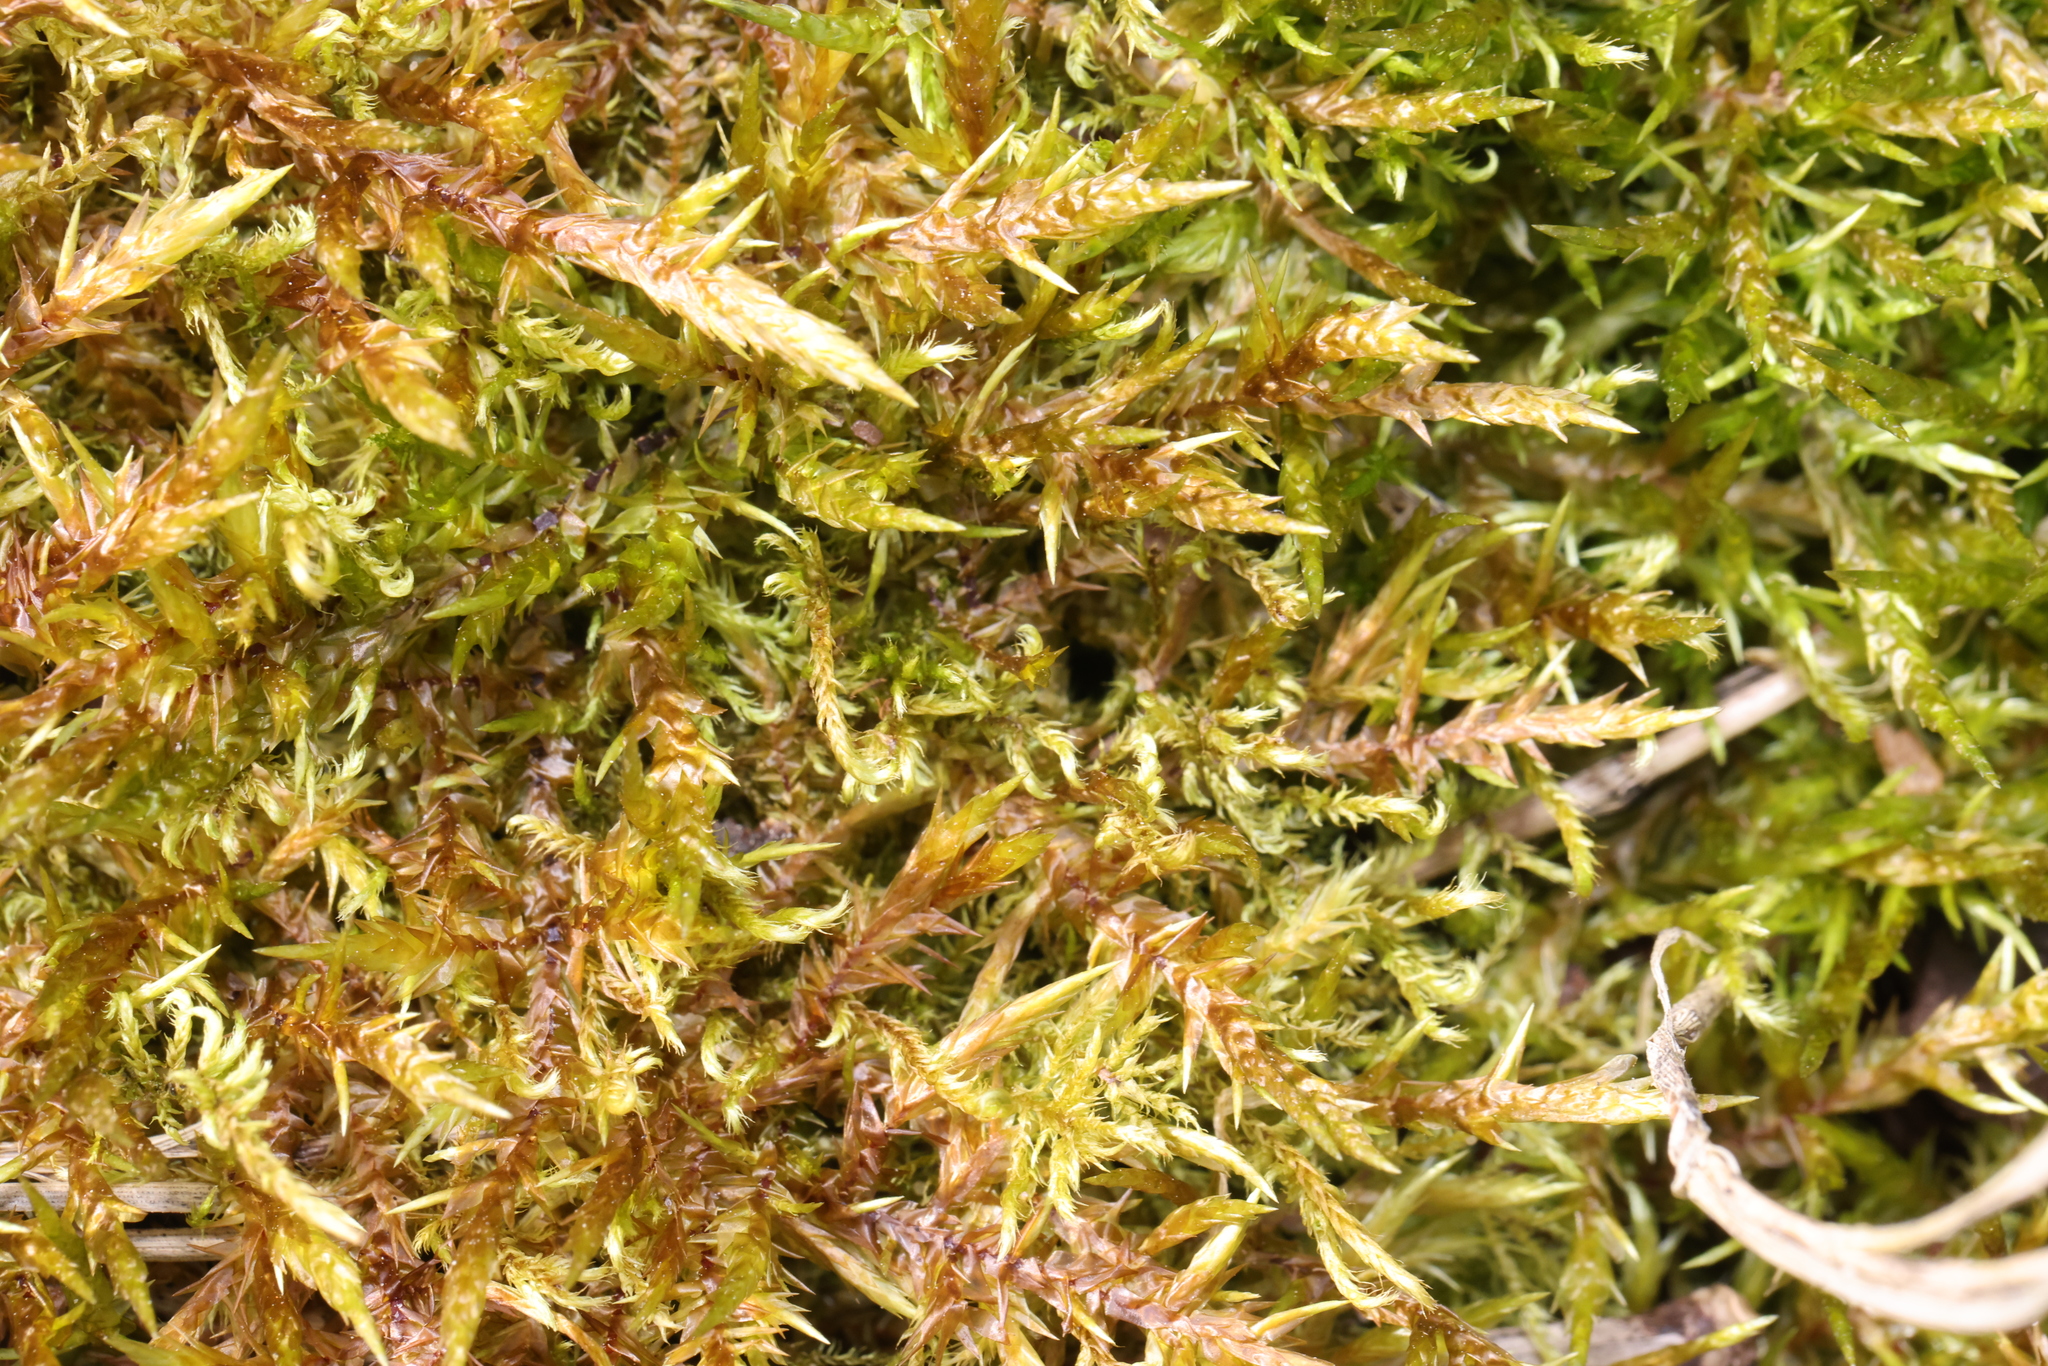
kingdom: Plantae
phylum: Bryophyta
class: Bryopsida
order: Hypnales
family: Pylaisiaceae
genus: Calliergonella
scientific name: Calliergonella cuspidata
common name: Common large wetland moss
